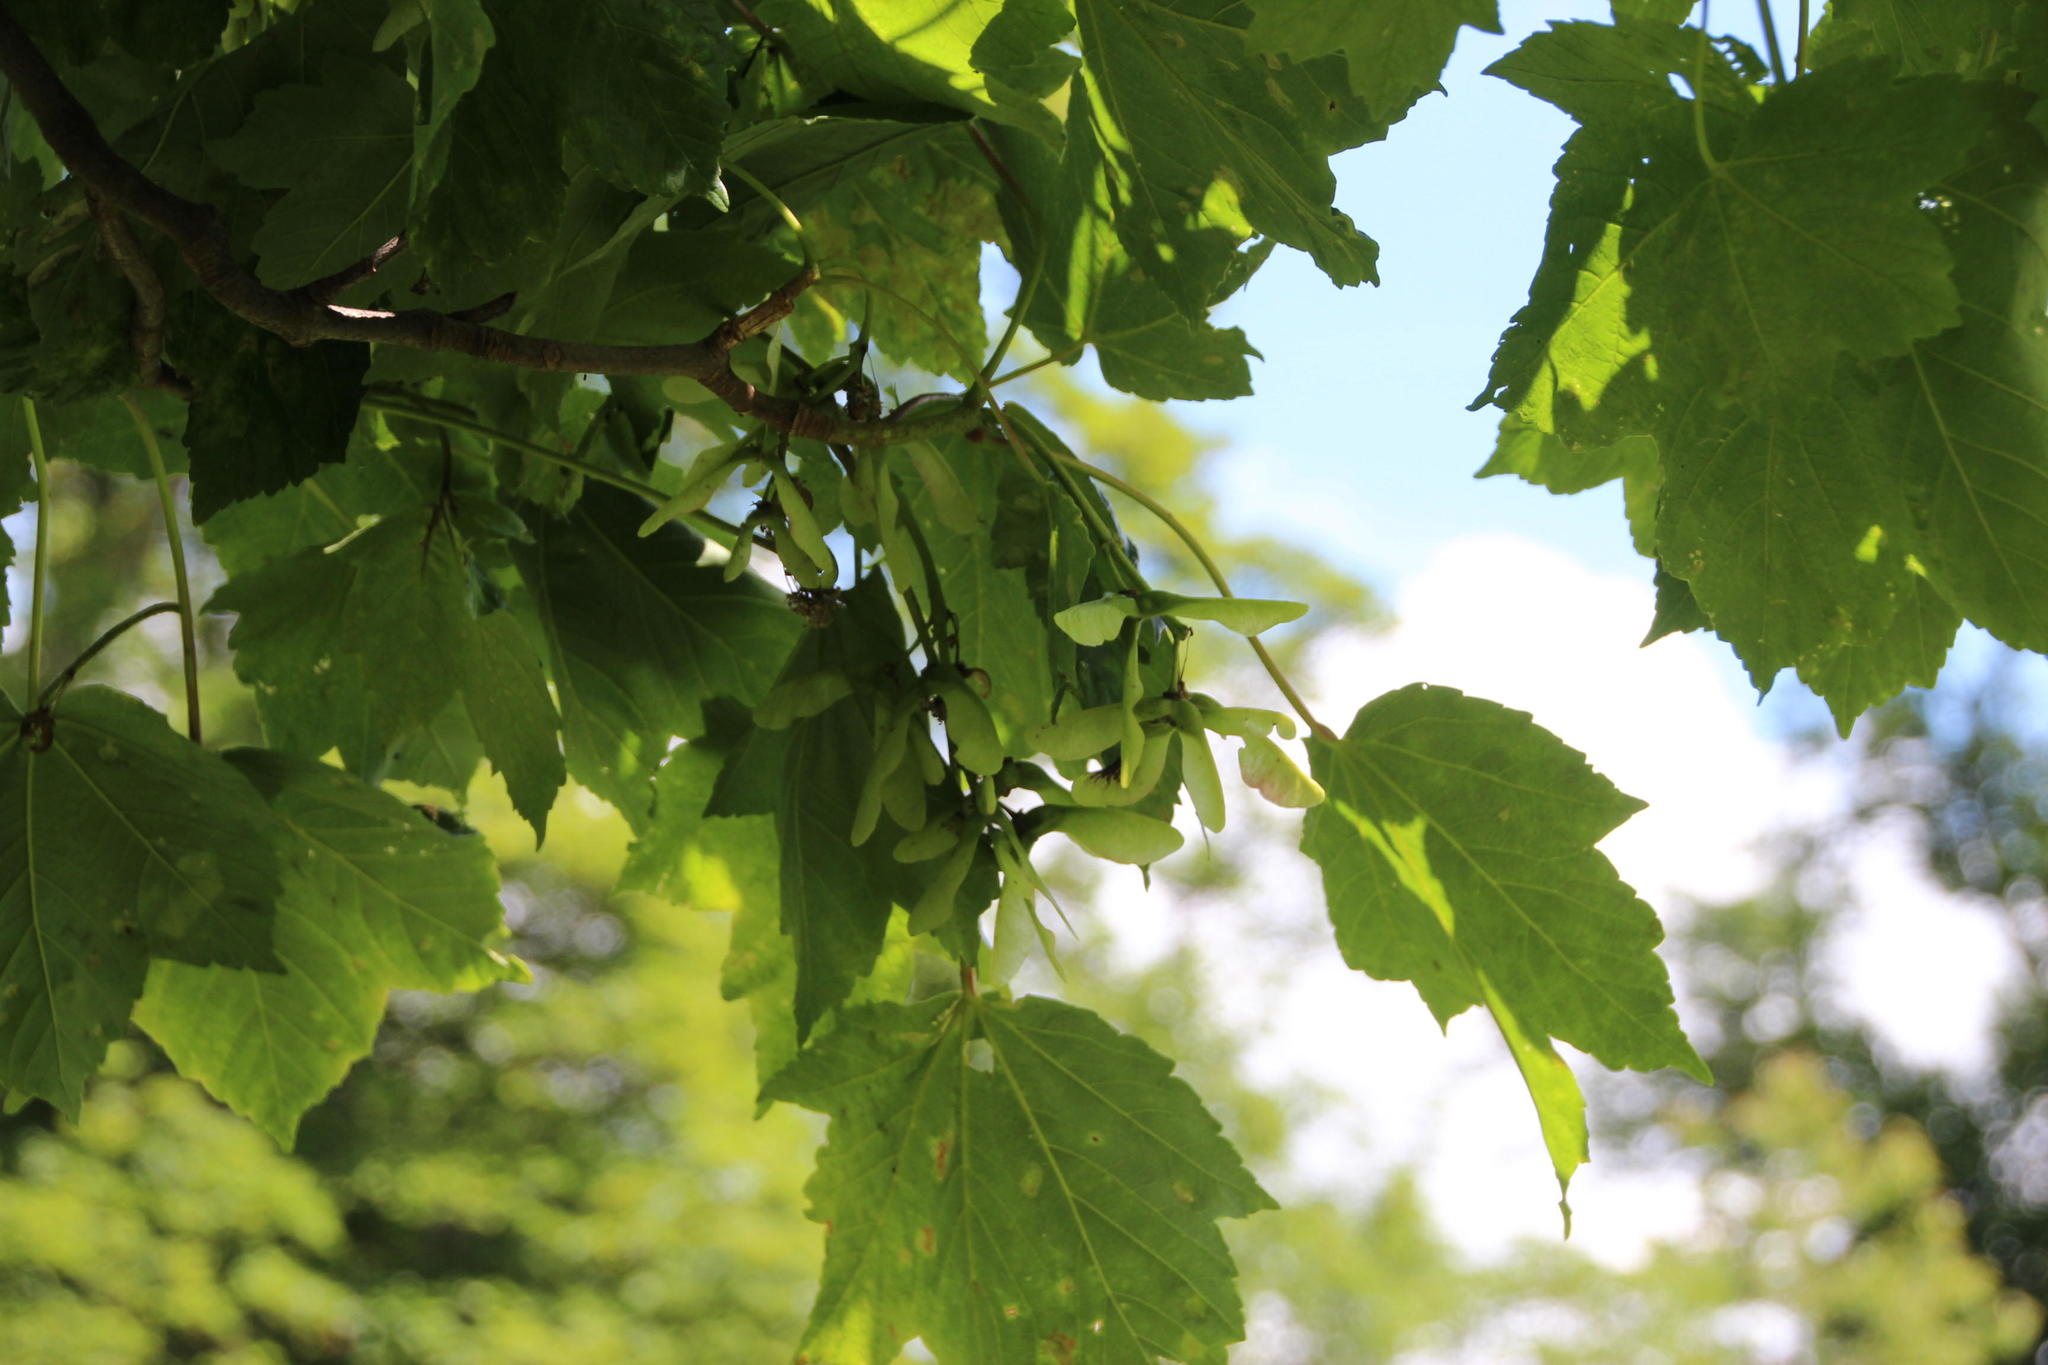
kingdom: Plantae
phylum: Tracheophyta
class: Magnoliopsida
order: Sapindales
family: Sapindaceae
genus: Acer
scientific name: Acer pseudoplatanus
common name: Sycamore
